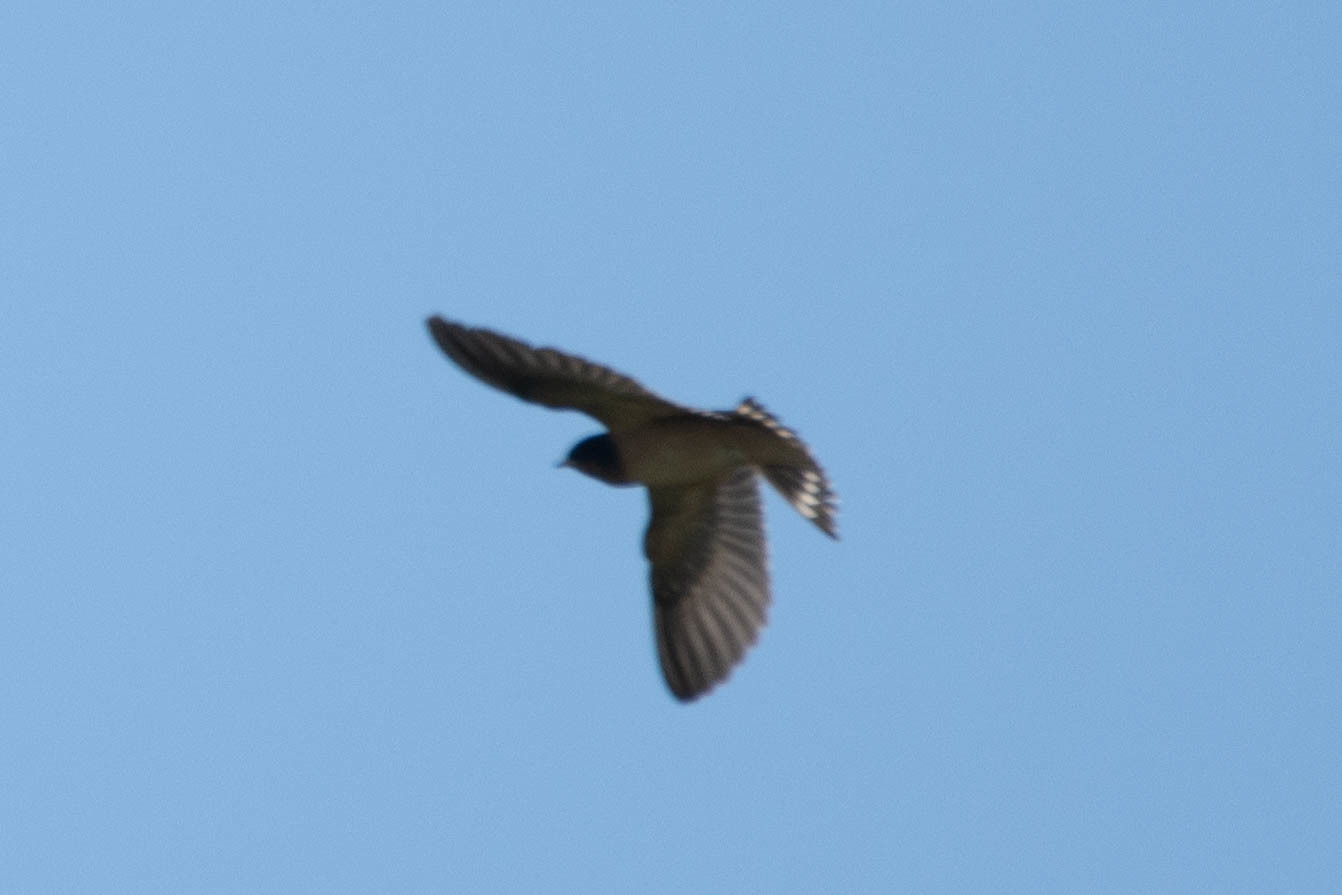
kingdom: Animalia
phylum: Chordata
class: Aves
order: Passeriformes
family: Hirundinidae
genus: Hirundo
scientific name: Hirundo rustica
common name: Barn swallow
